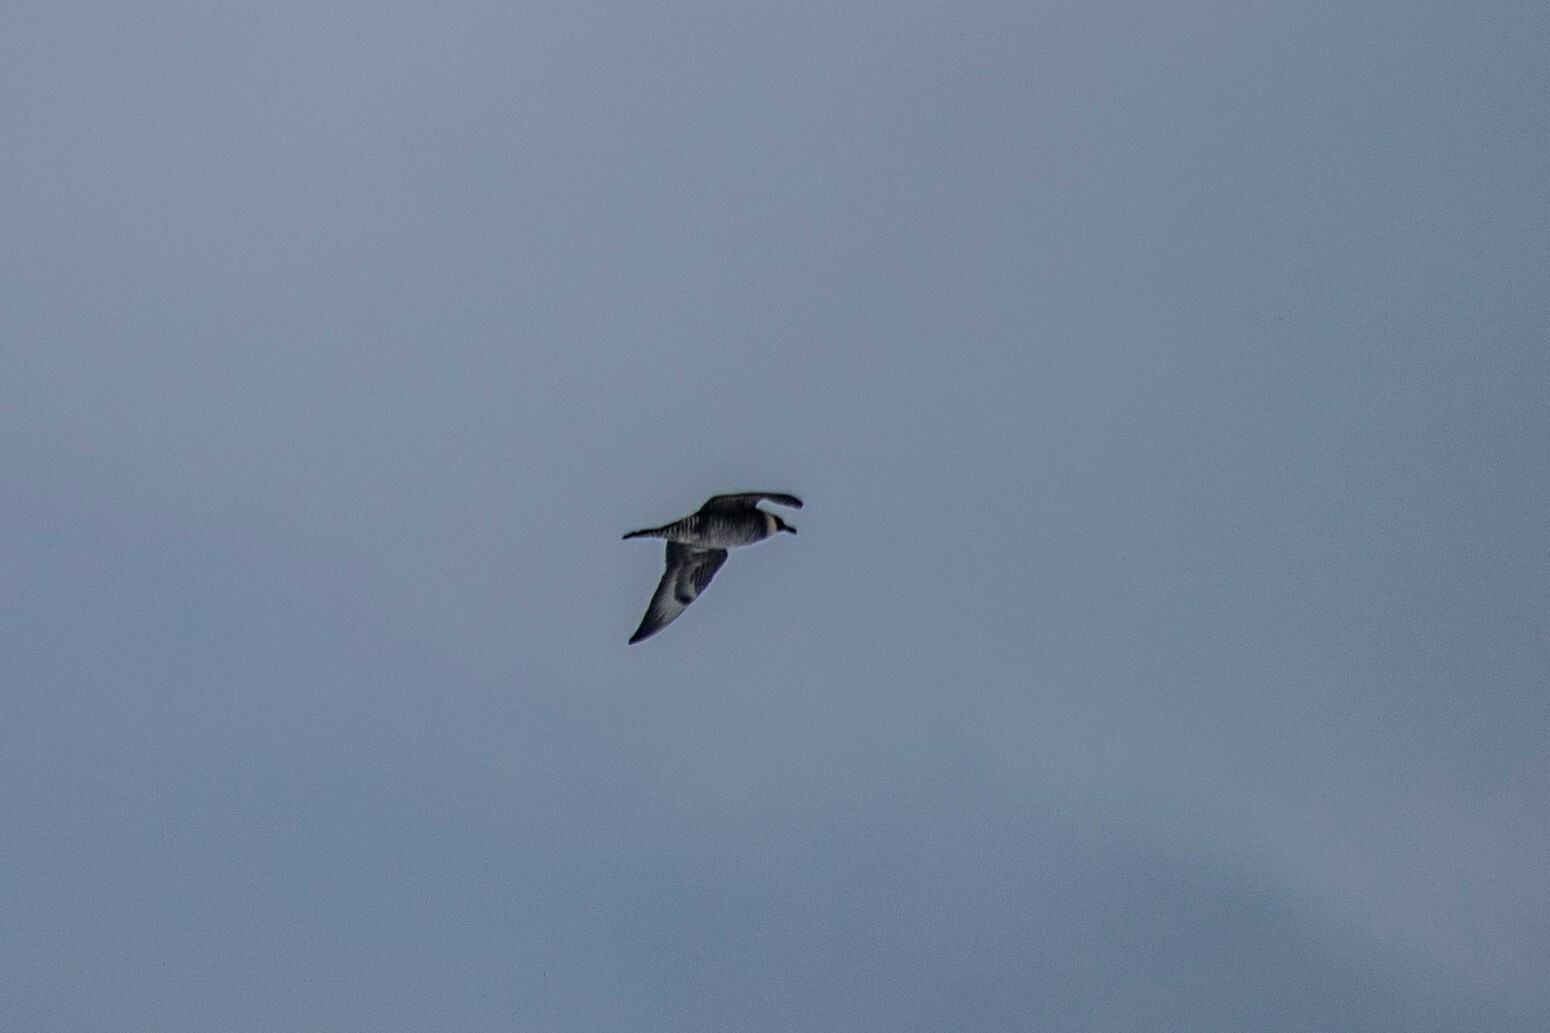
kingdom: Animalia
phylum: Chordata
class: Aves
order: Charadriiformes
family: Stercorariidae
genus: Stercorarius
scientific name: Stercorarius pomarinus
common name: Pomarine jaeger
